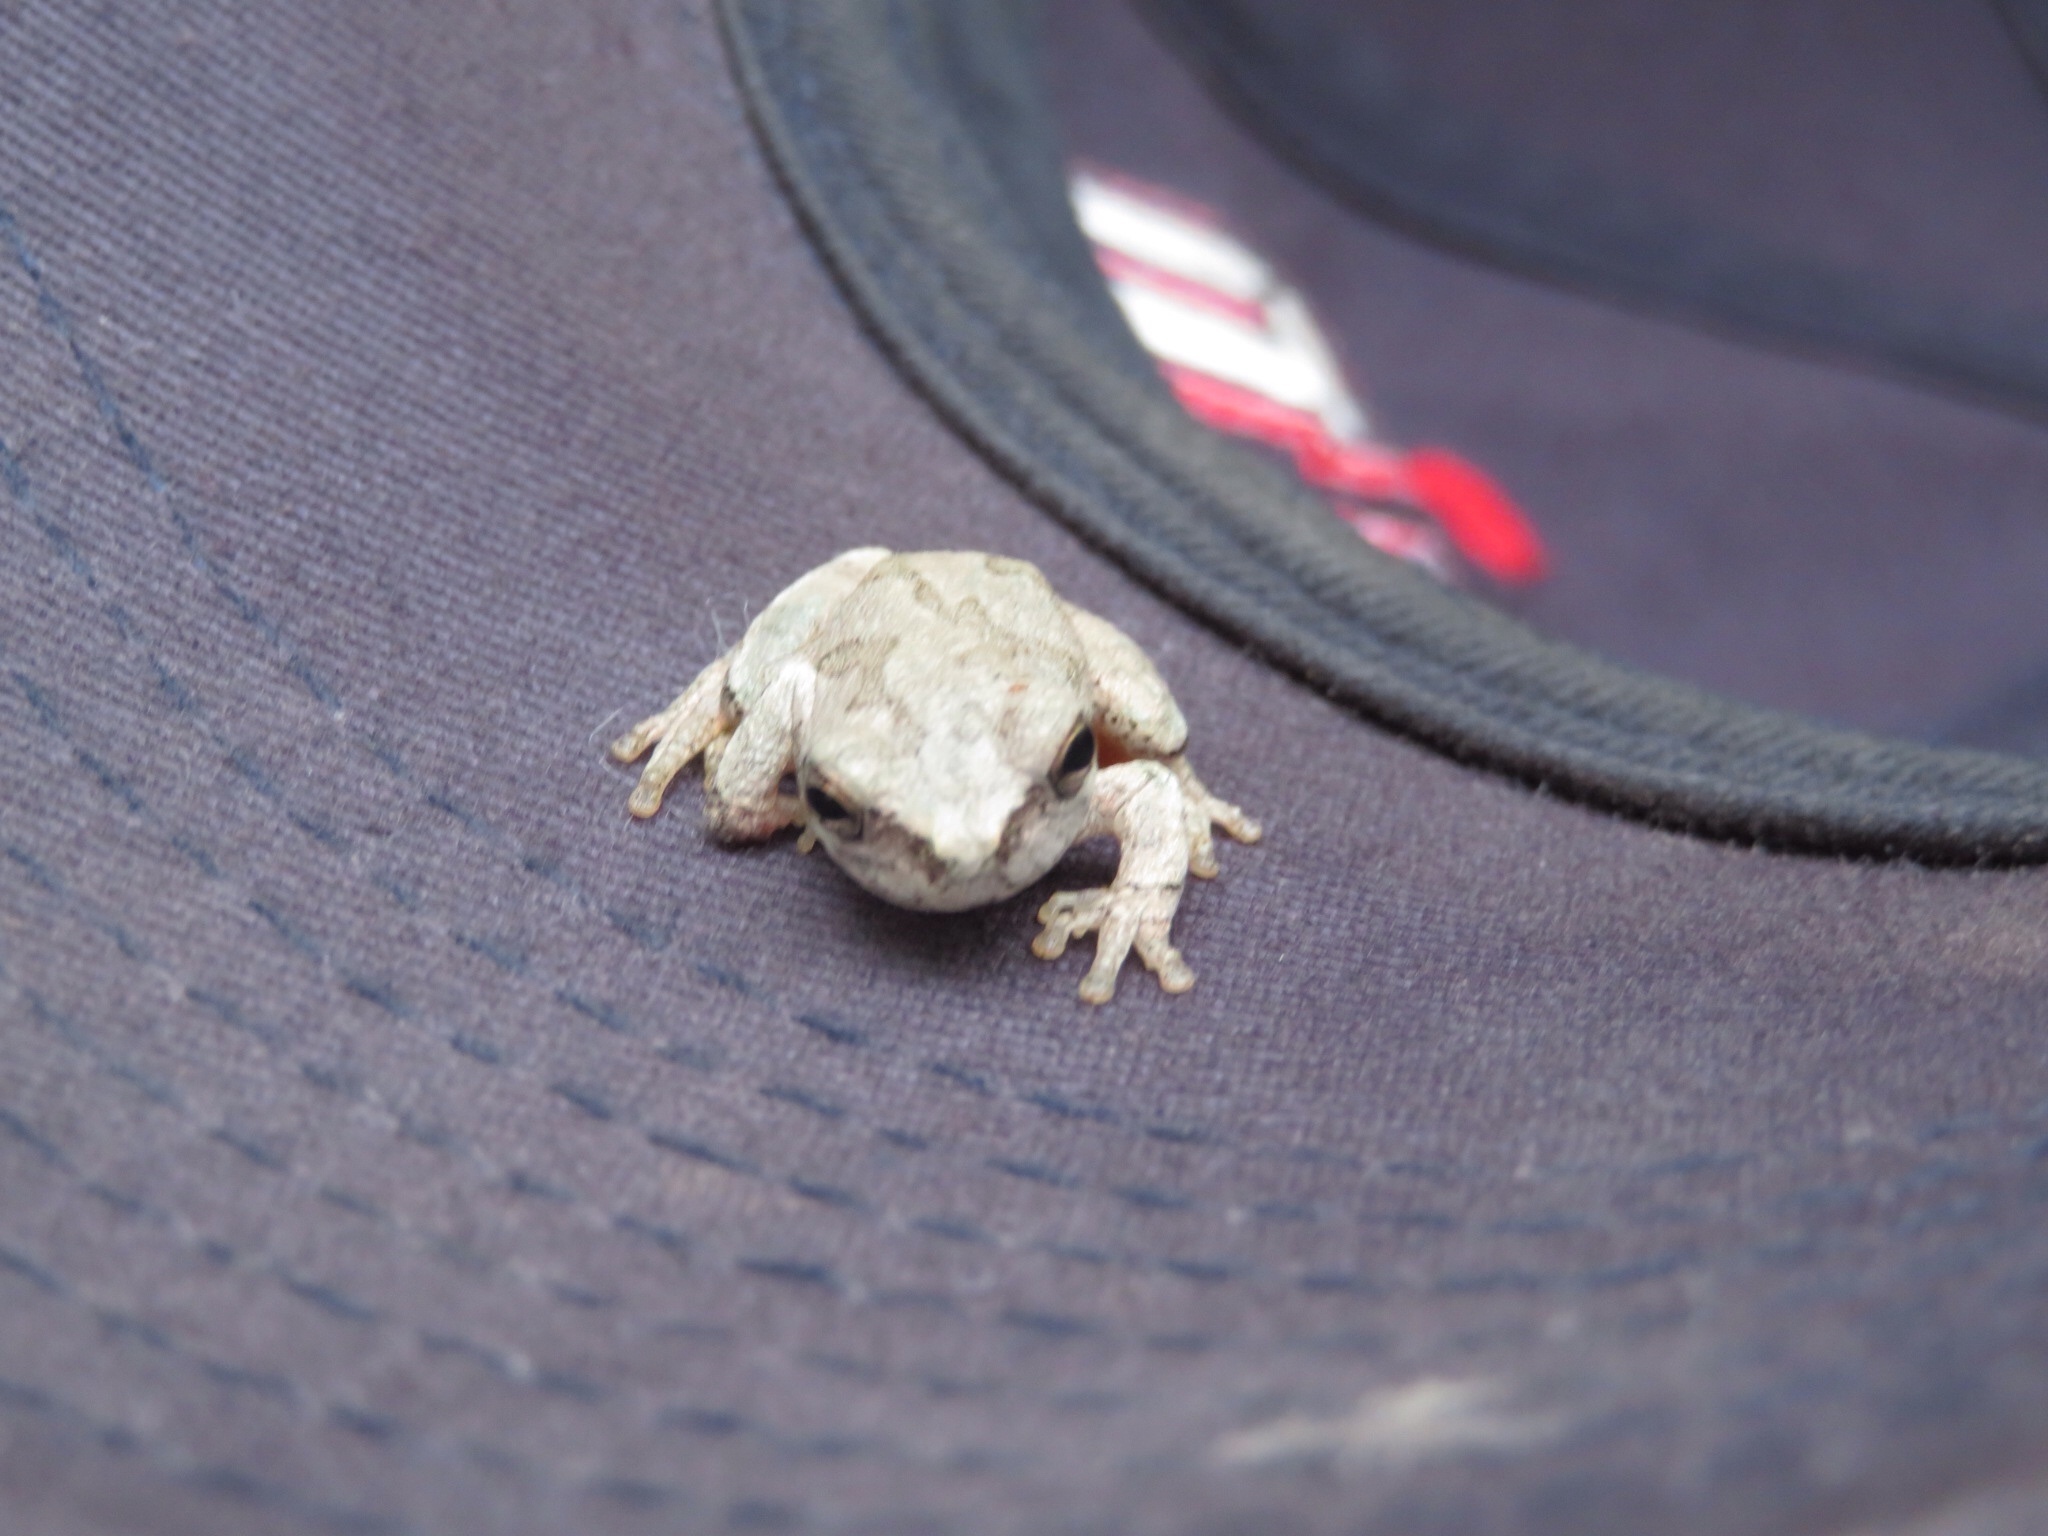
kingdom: Animalia
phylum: Chordata
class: Amphibia
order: Anura
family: Hylidae
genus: Hyla
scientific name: Hyla
